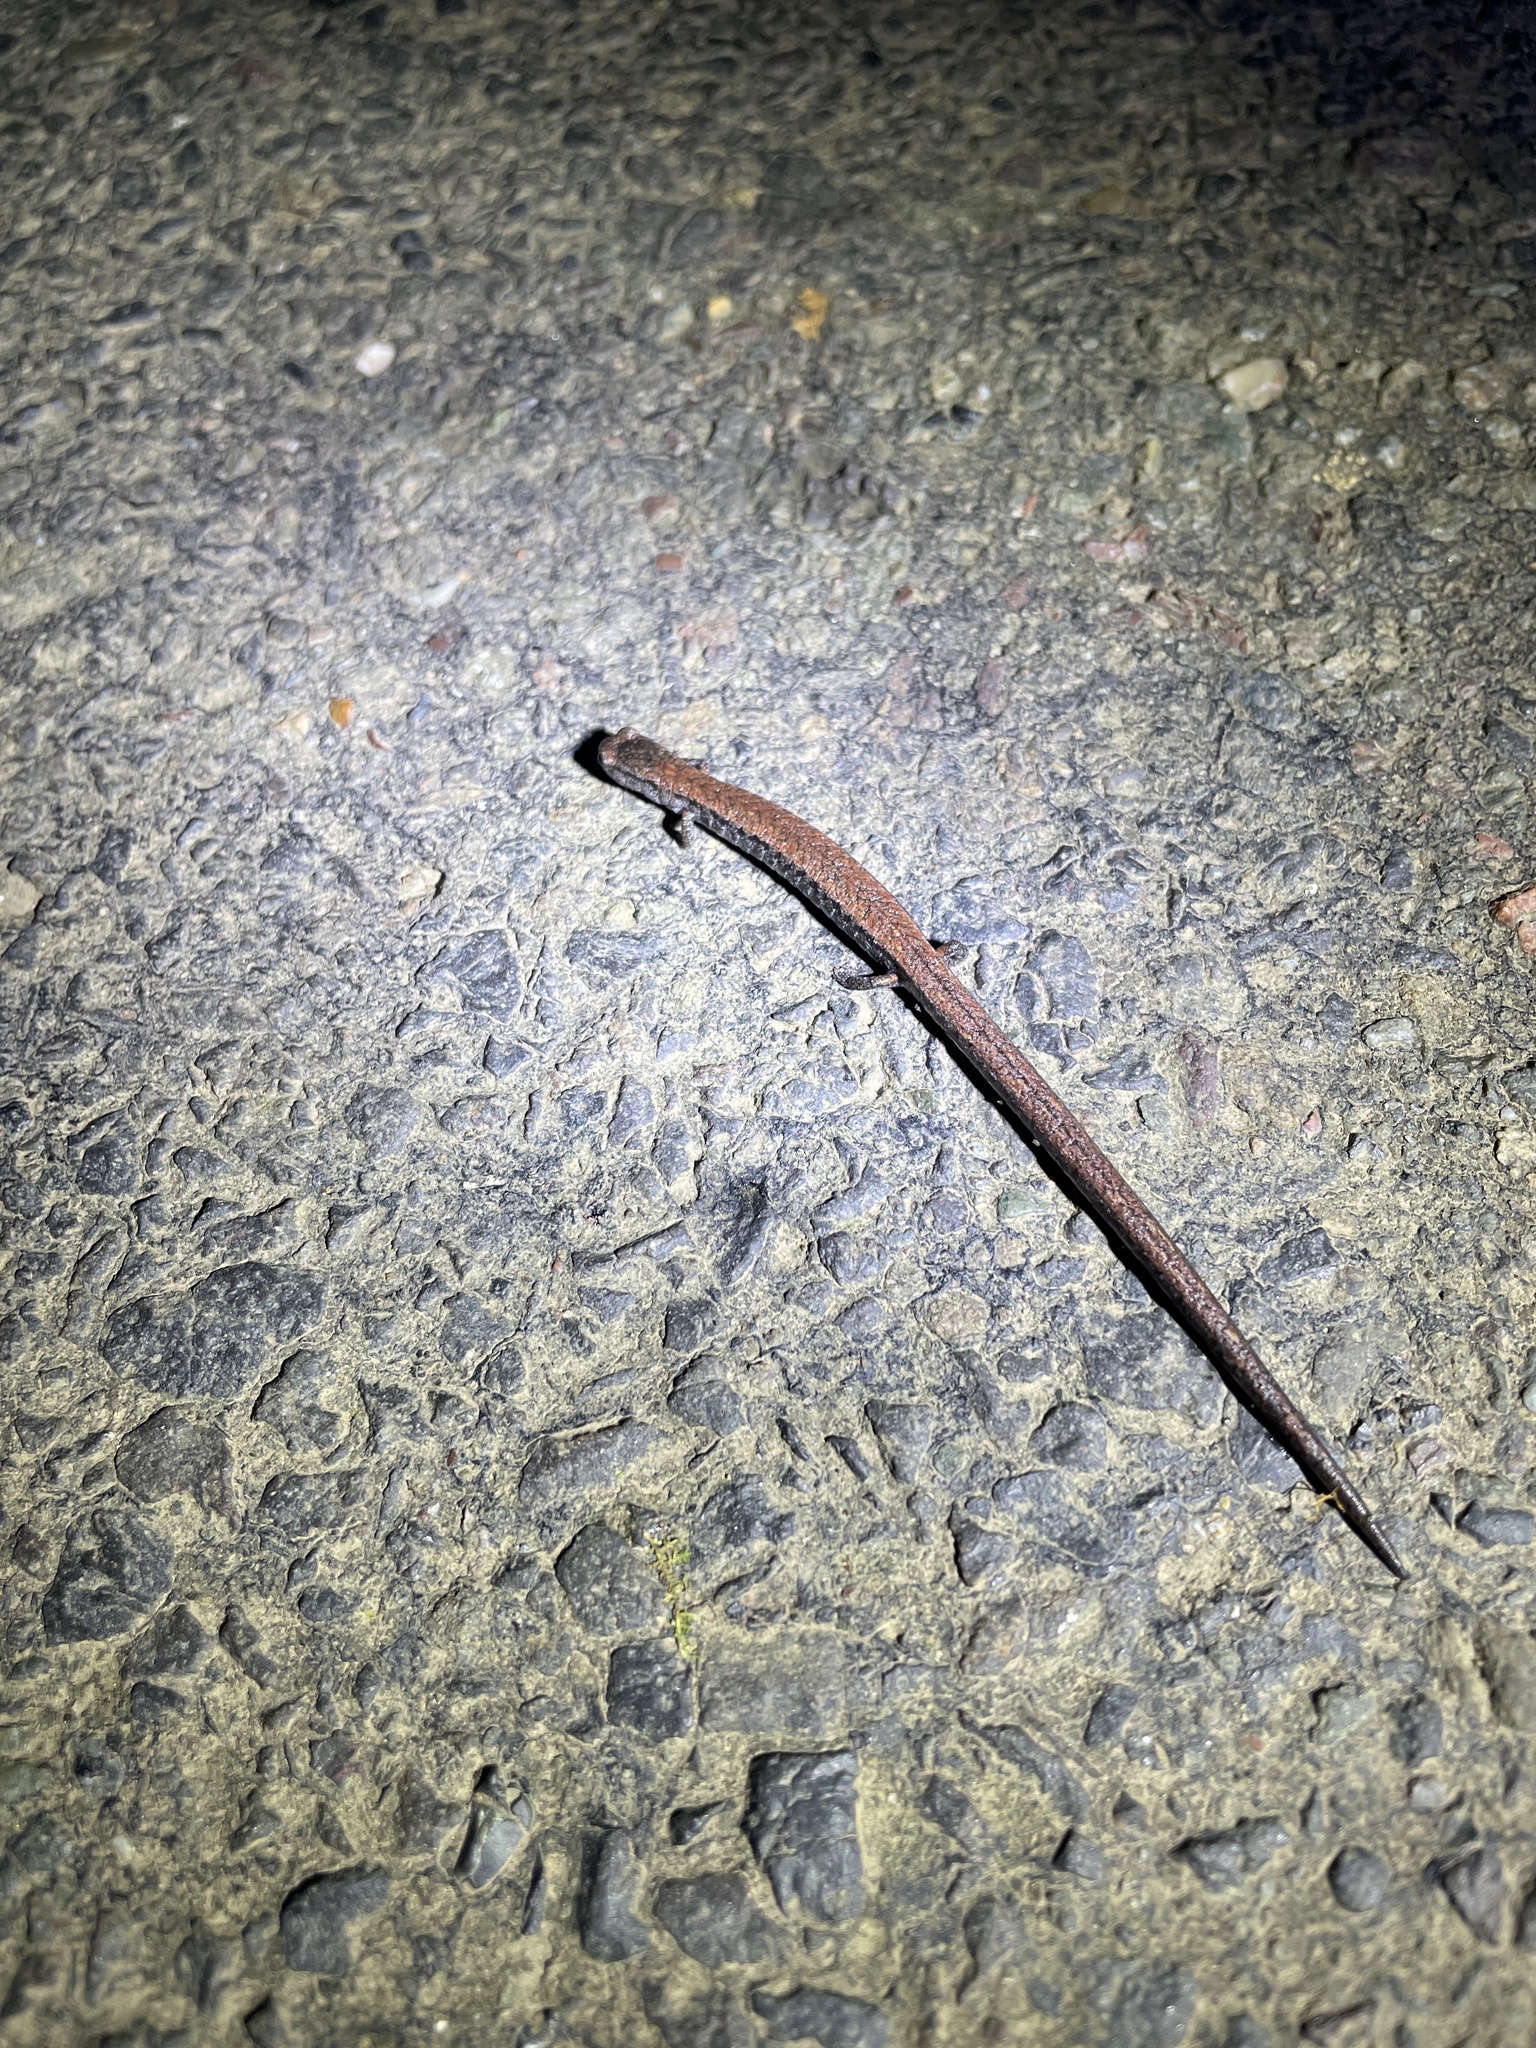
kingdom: Animalia
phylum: Chordata
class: Amphibia
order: Caudata
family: Plethodontidae
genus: Batrachoseps
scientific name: Batrachoseps attenuatus
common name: California slender salamander
